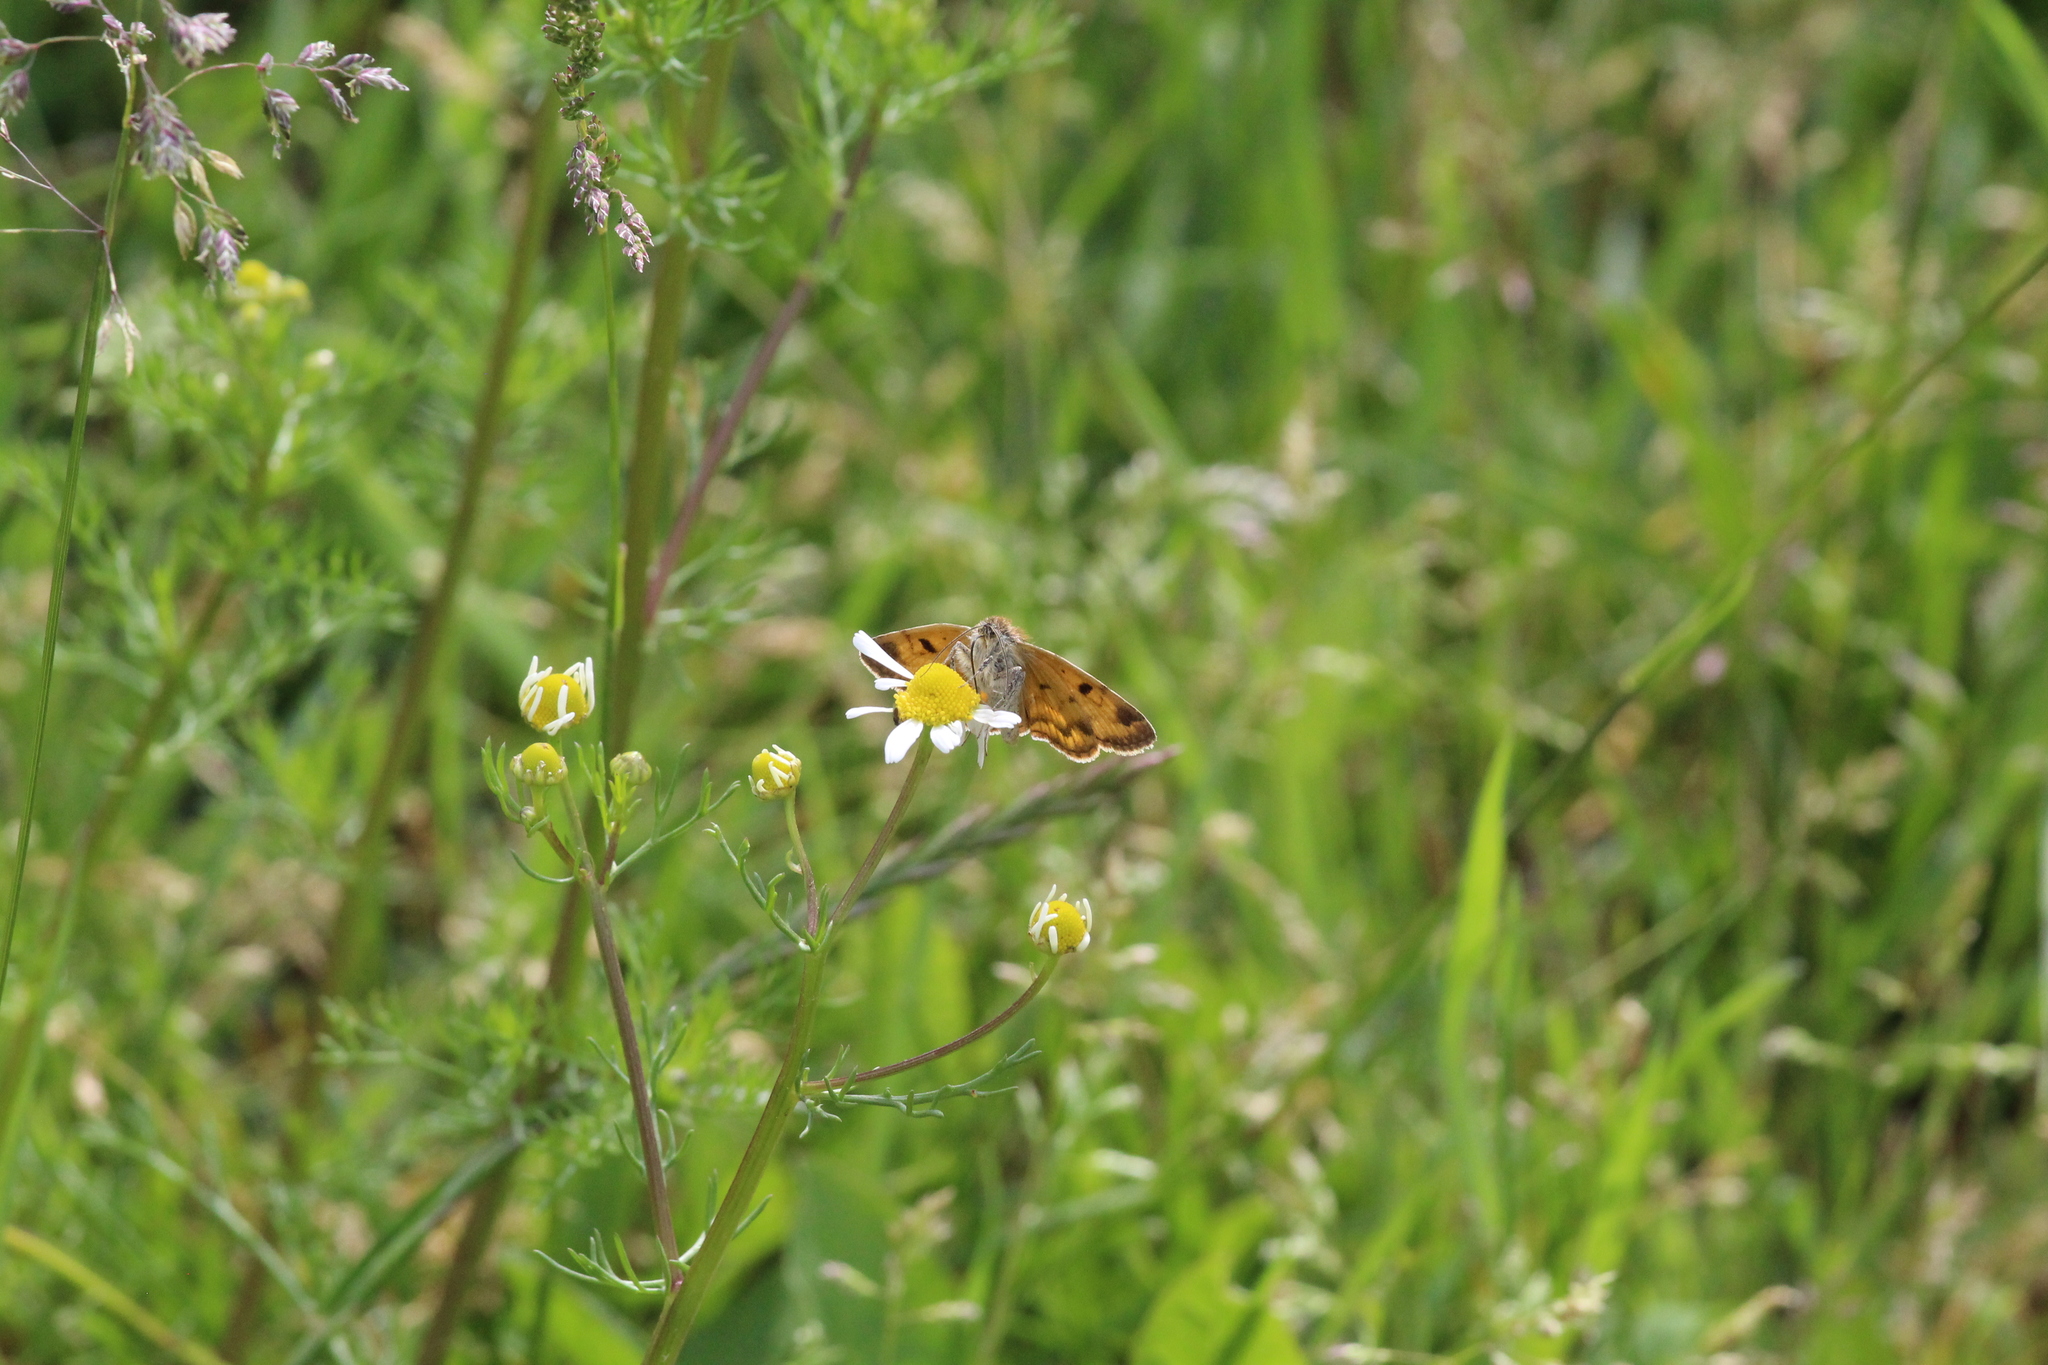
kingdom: Animalia
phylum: Arthropoda
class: Insecta
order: Lepidoptera
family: Erebidae
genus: Euclidia
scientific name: Euclidia glyphica
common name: Burnet companion
